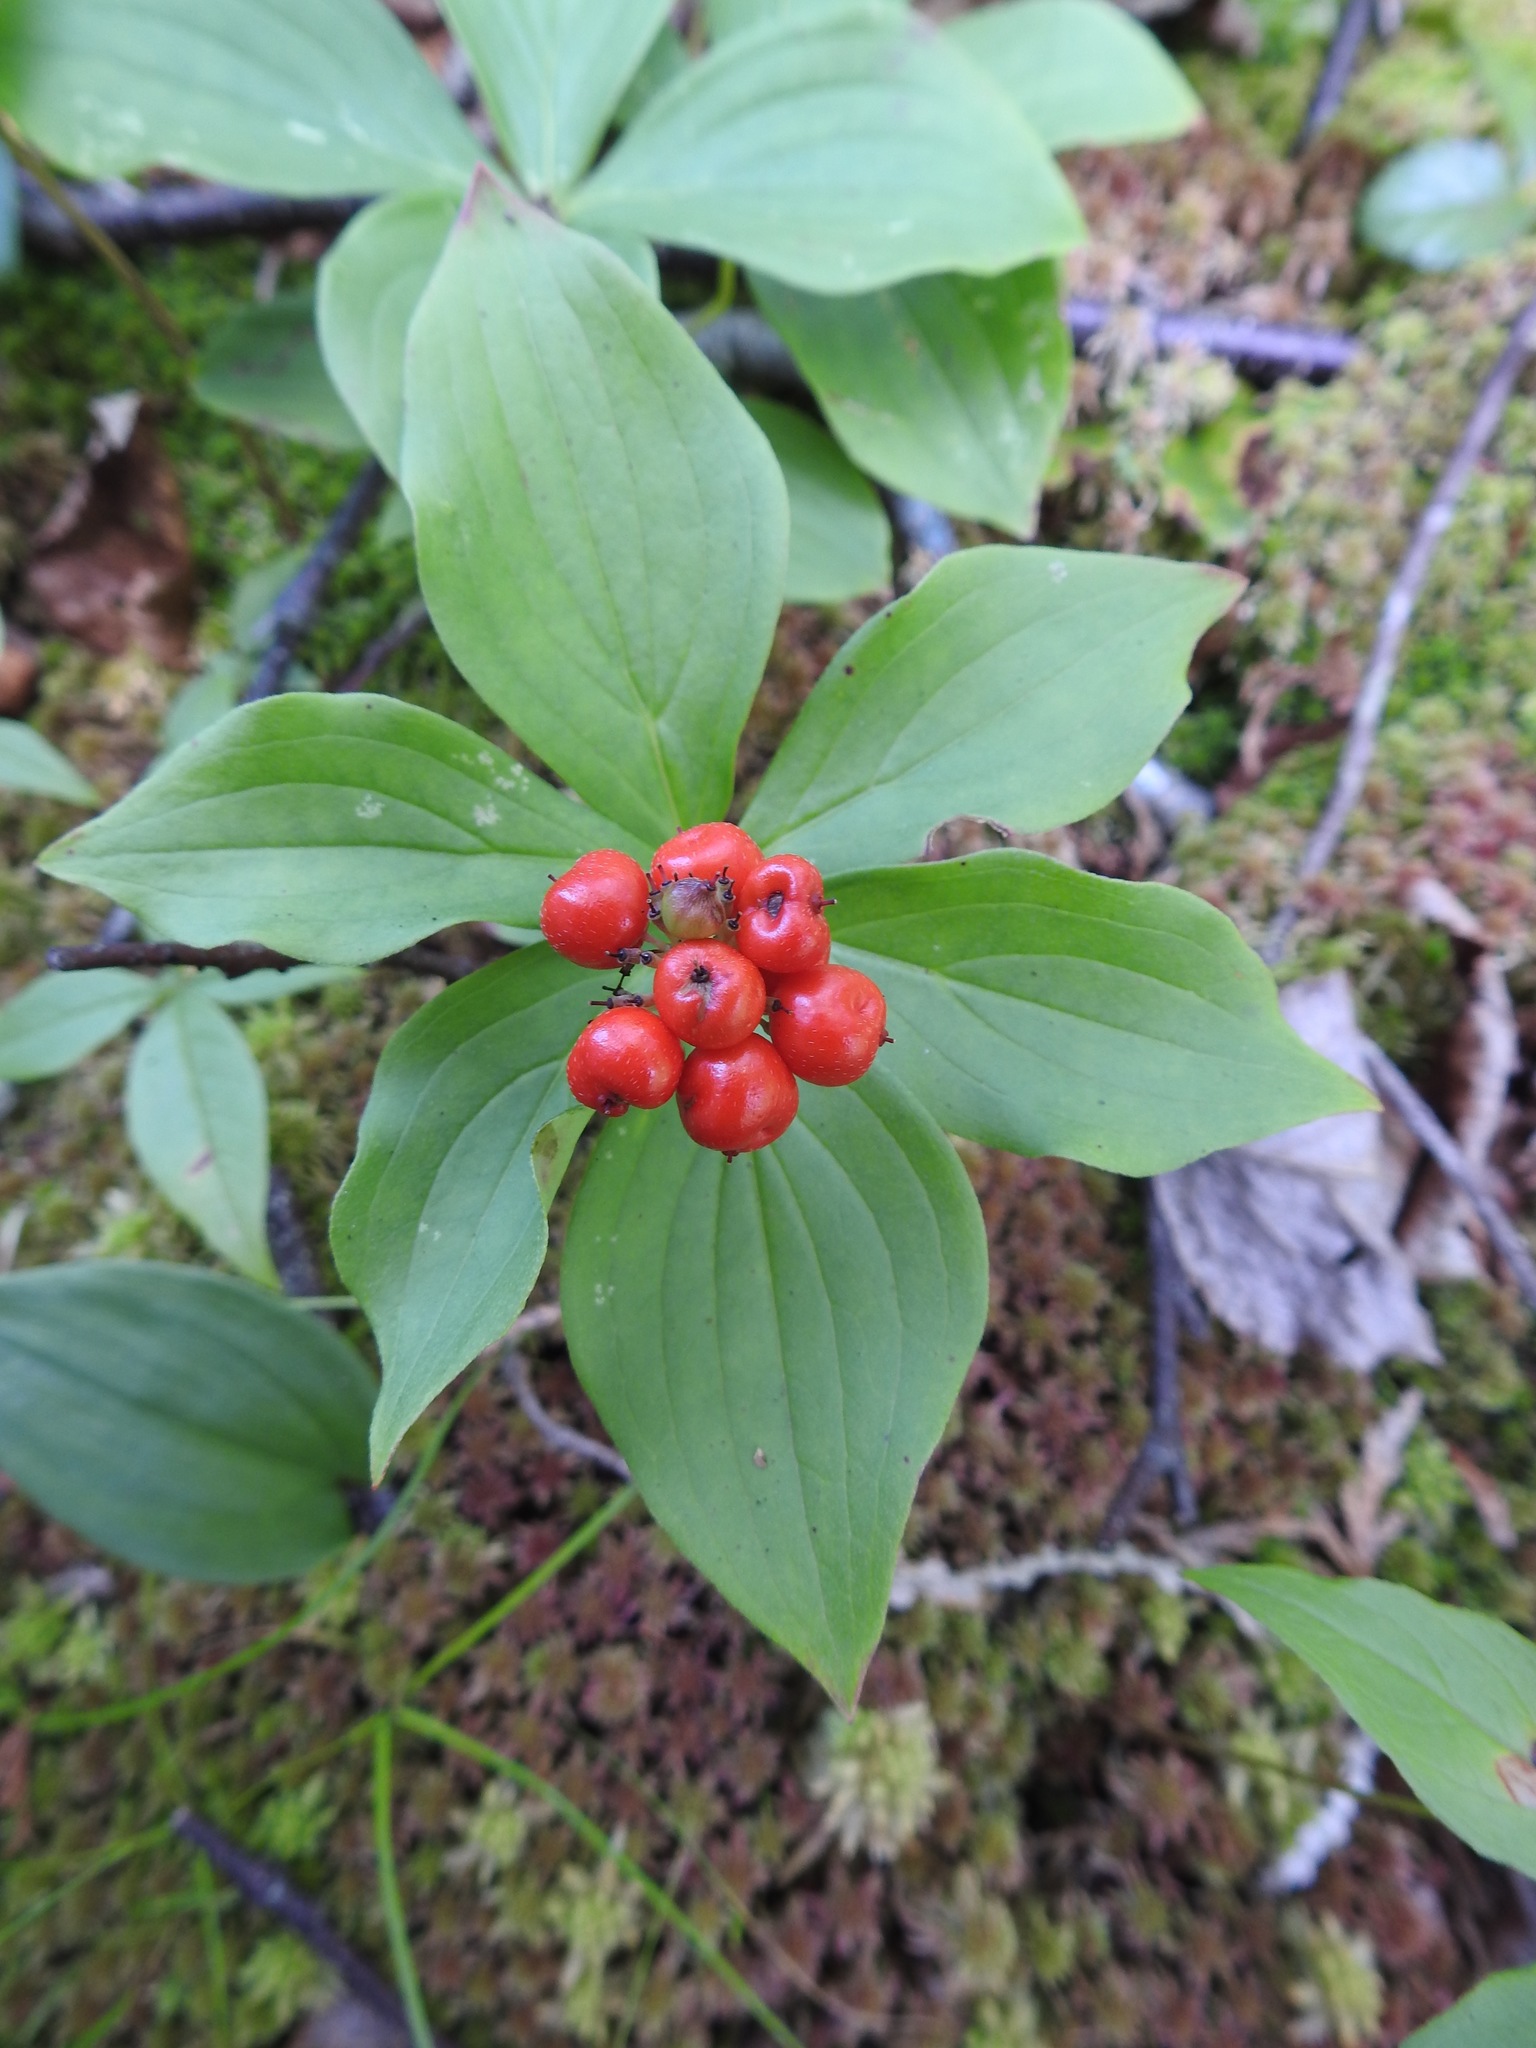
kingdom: Plantae
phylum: Tracheophyta
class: Magnoliopsida
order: Cornales
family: Cornaceae
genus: Cornus
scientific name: Cornus canadensis
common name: Creeping dogwood
